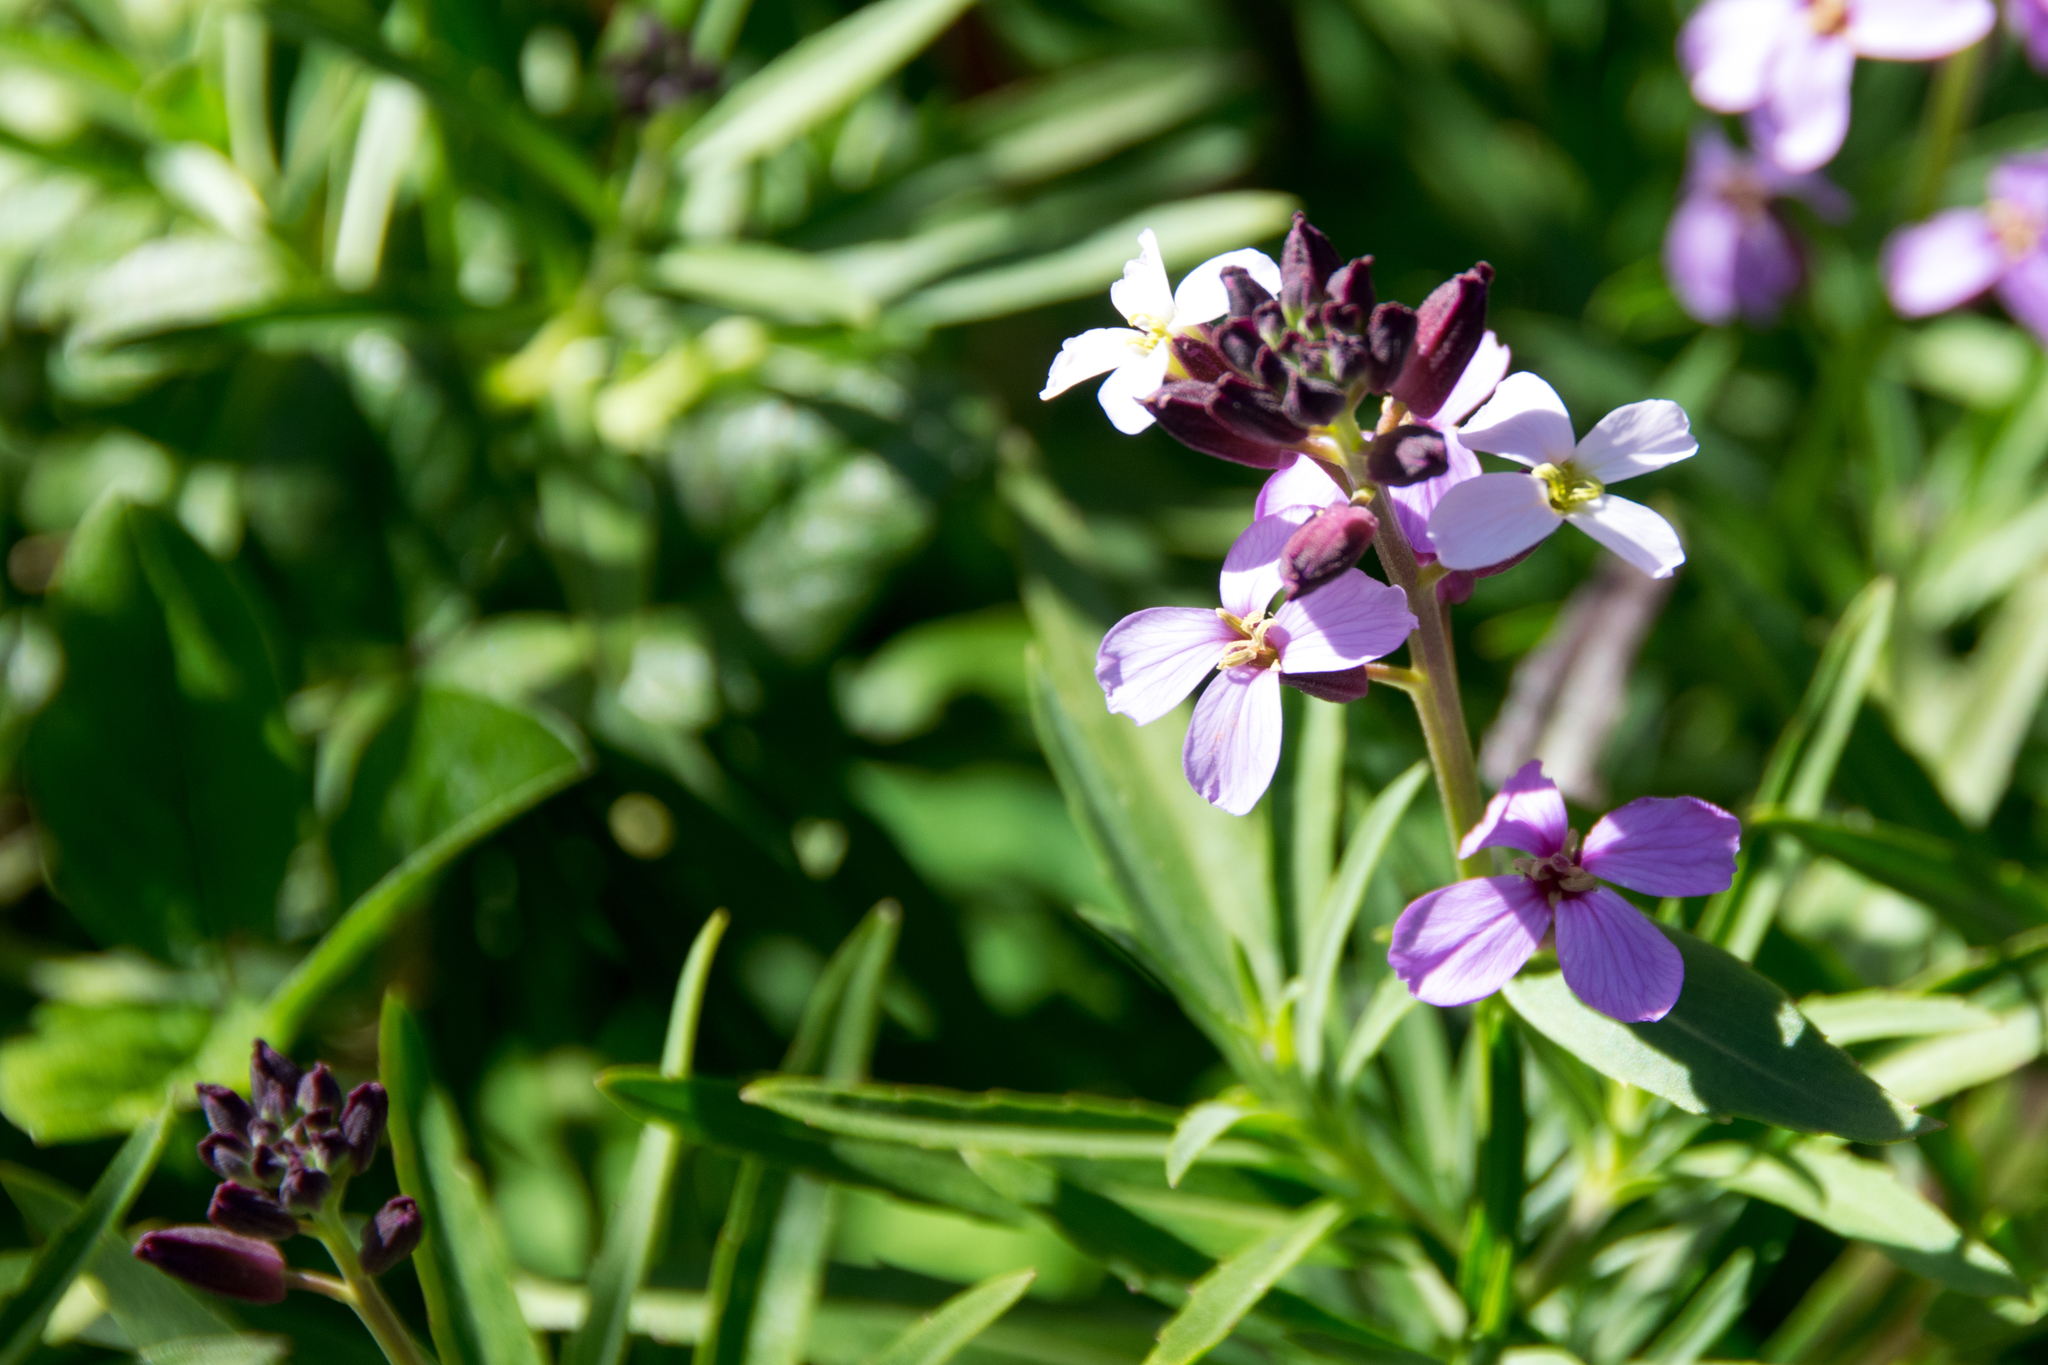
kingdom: Plantae
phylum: Tracheophyta
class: Magnoliopsida
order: Brassicales
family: Brassicaceae
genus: Erysimum
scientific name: Erysimum bicolor
